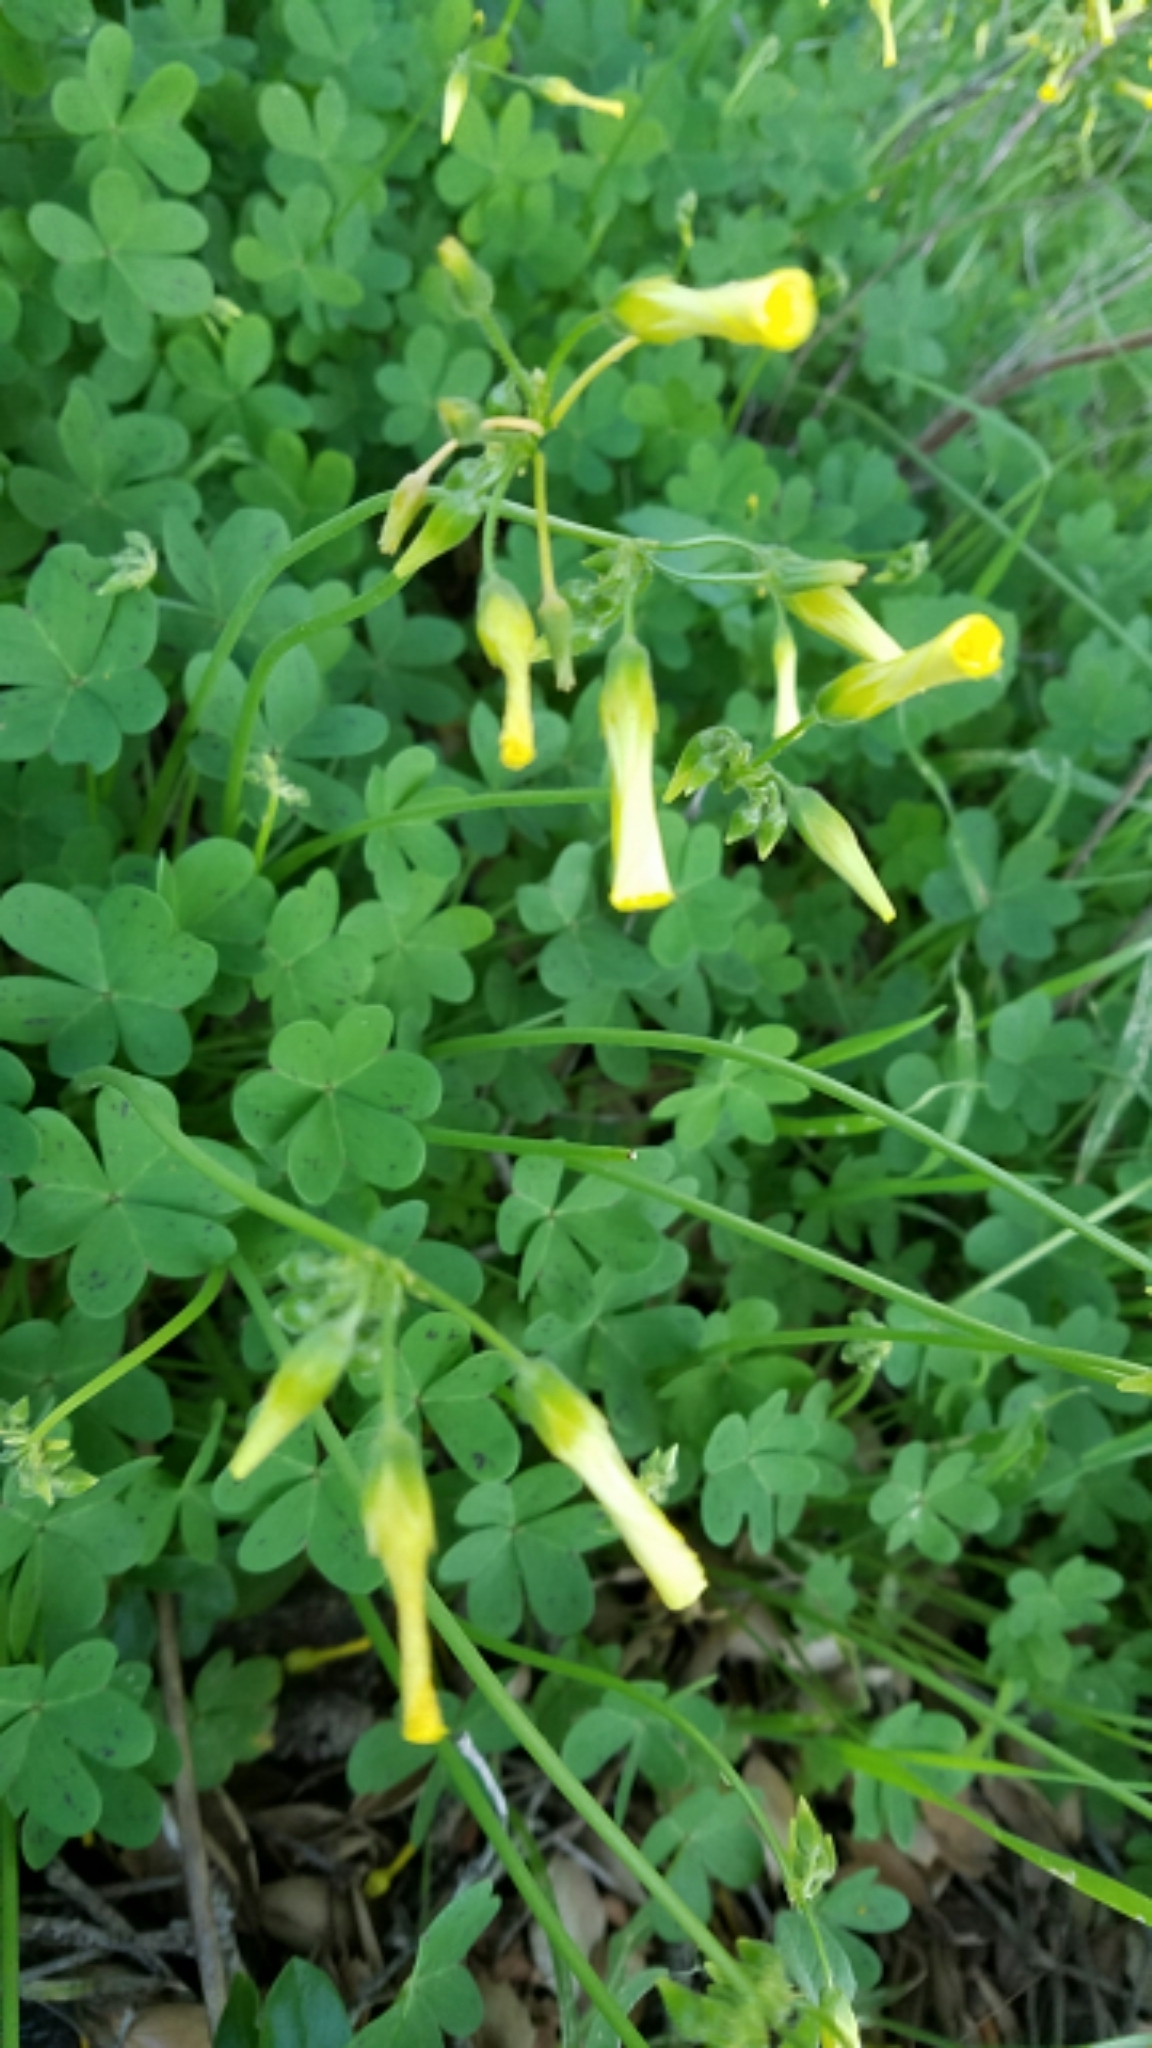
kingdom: Plantae
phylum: Tracheophyta
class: Magnoliopsida
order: Oxalidales
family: Oxalidaceae
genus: Oxalis
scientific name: Oxalis pes-caprae
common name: Bermuda-buttercup
